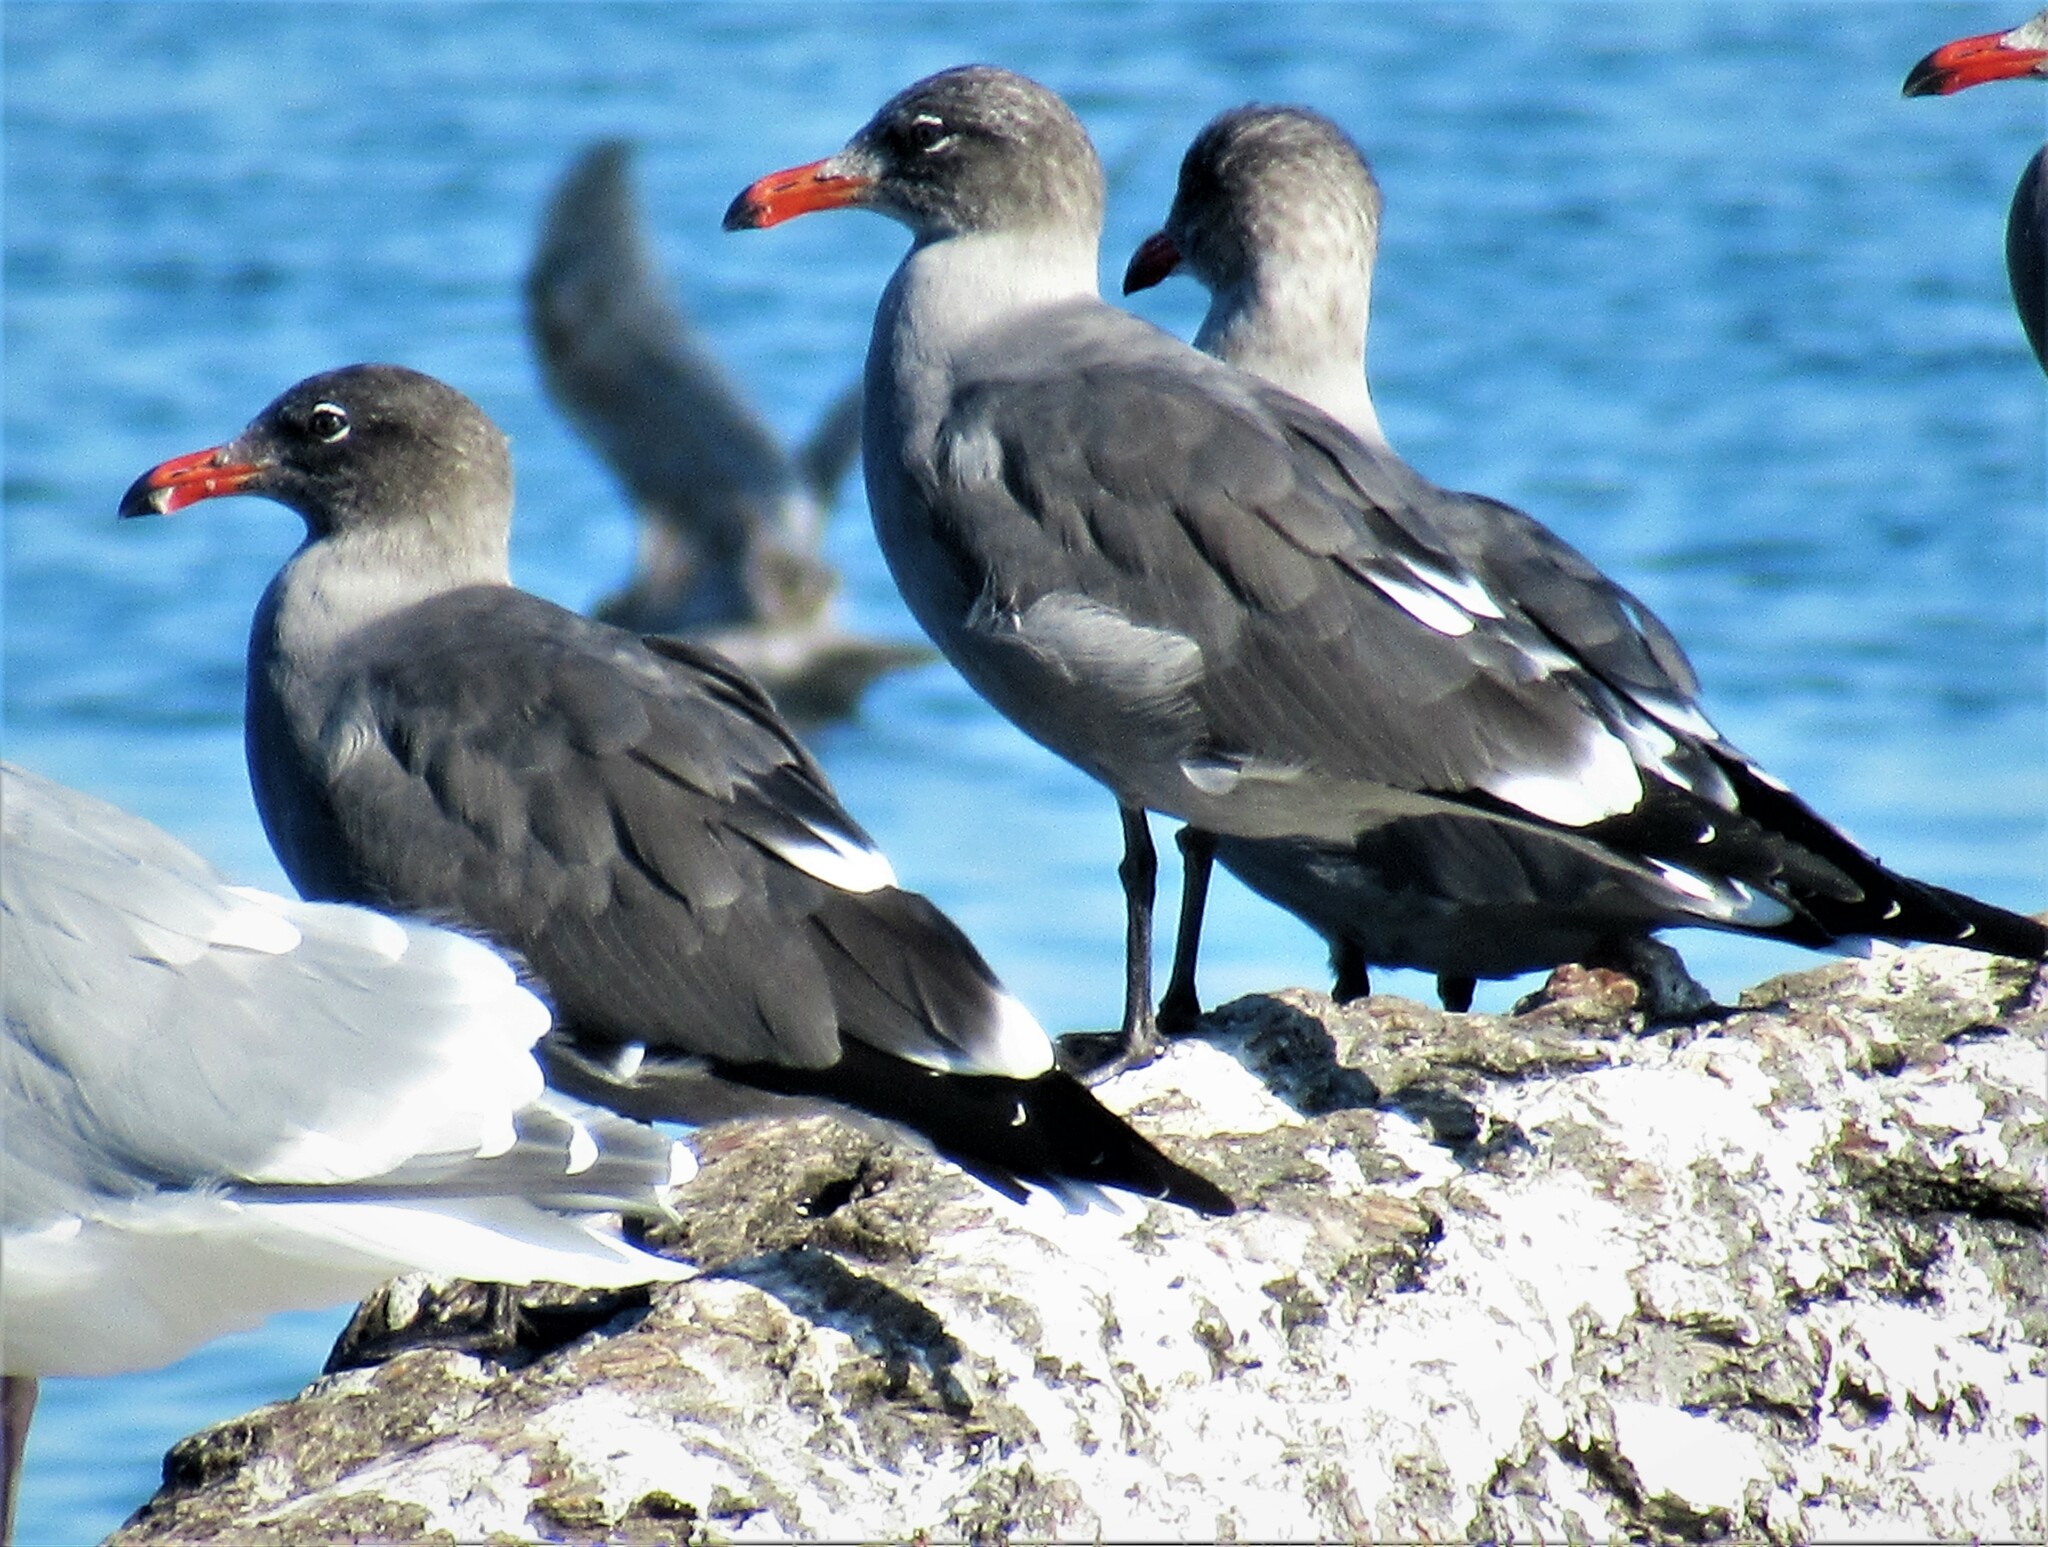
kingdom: Animalia
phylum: Chordata
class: Aves
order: Charadriiformes
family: Laridae
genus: Larus
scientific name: Larus heermanni
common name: Heermann's gull
